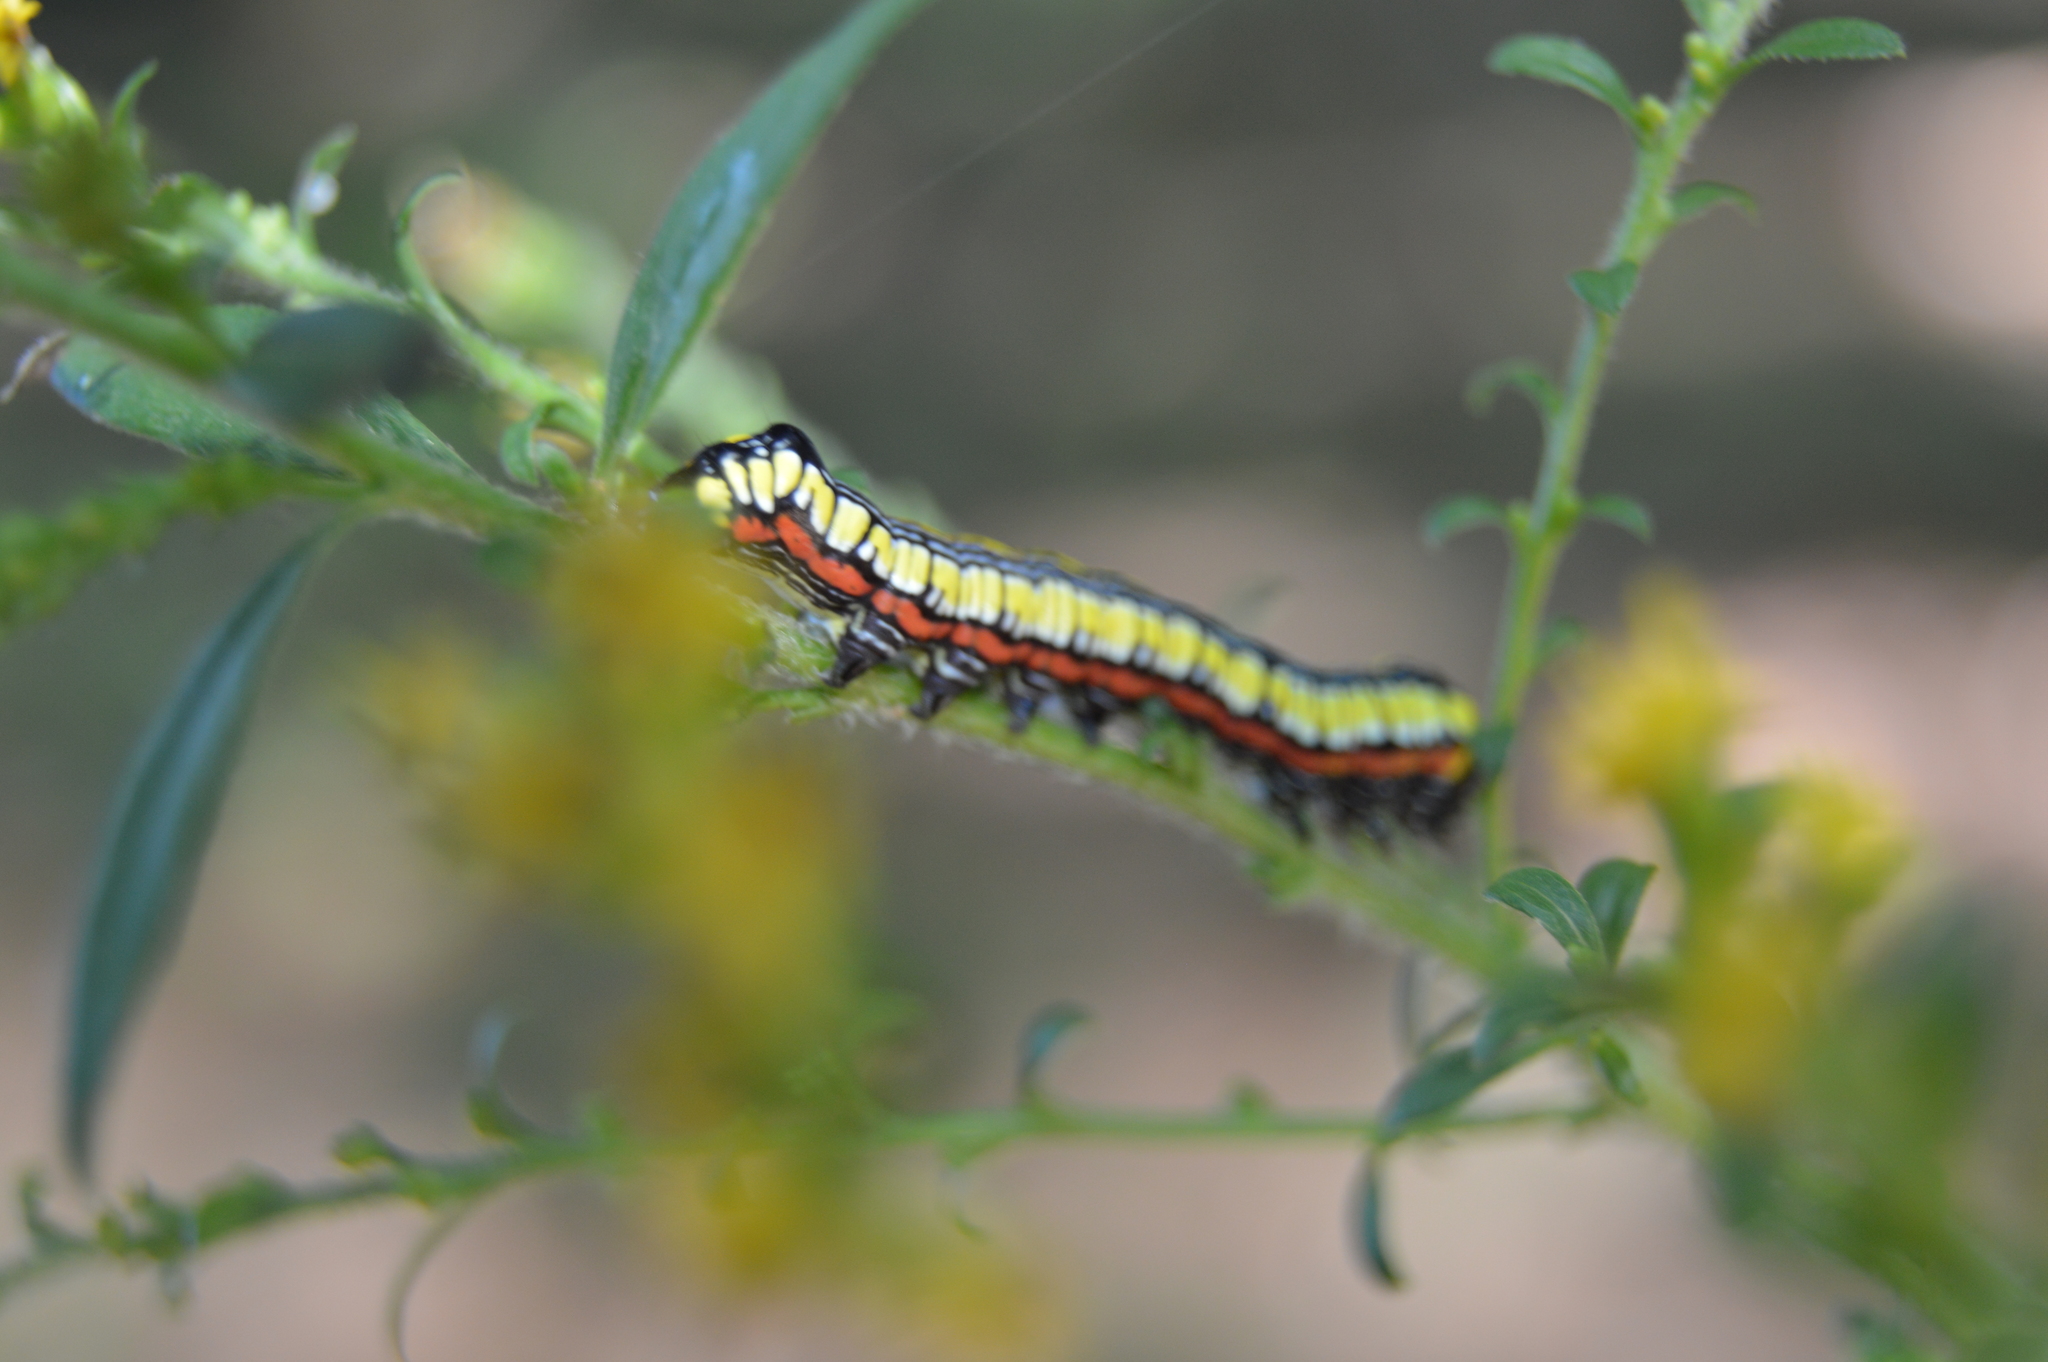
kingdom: Animalia
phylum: Arthropoda
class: Insecta
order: Lepidoptera
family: Noctuidae
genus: Cucullia
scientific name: Cucullia convexipennis
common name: Brown-hooded owlet
